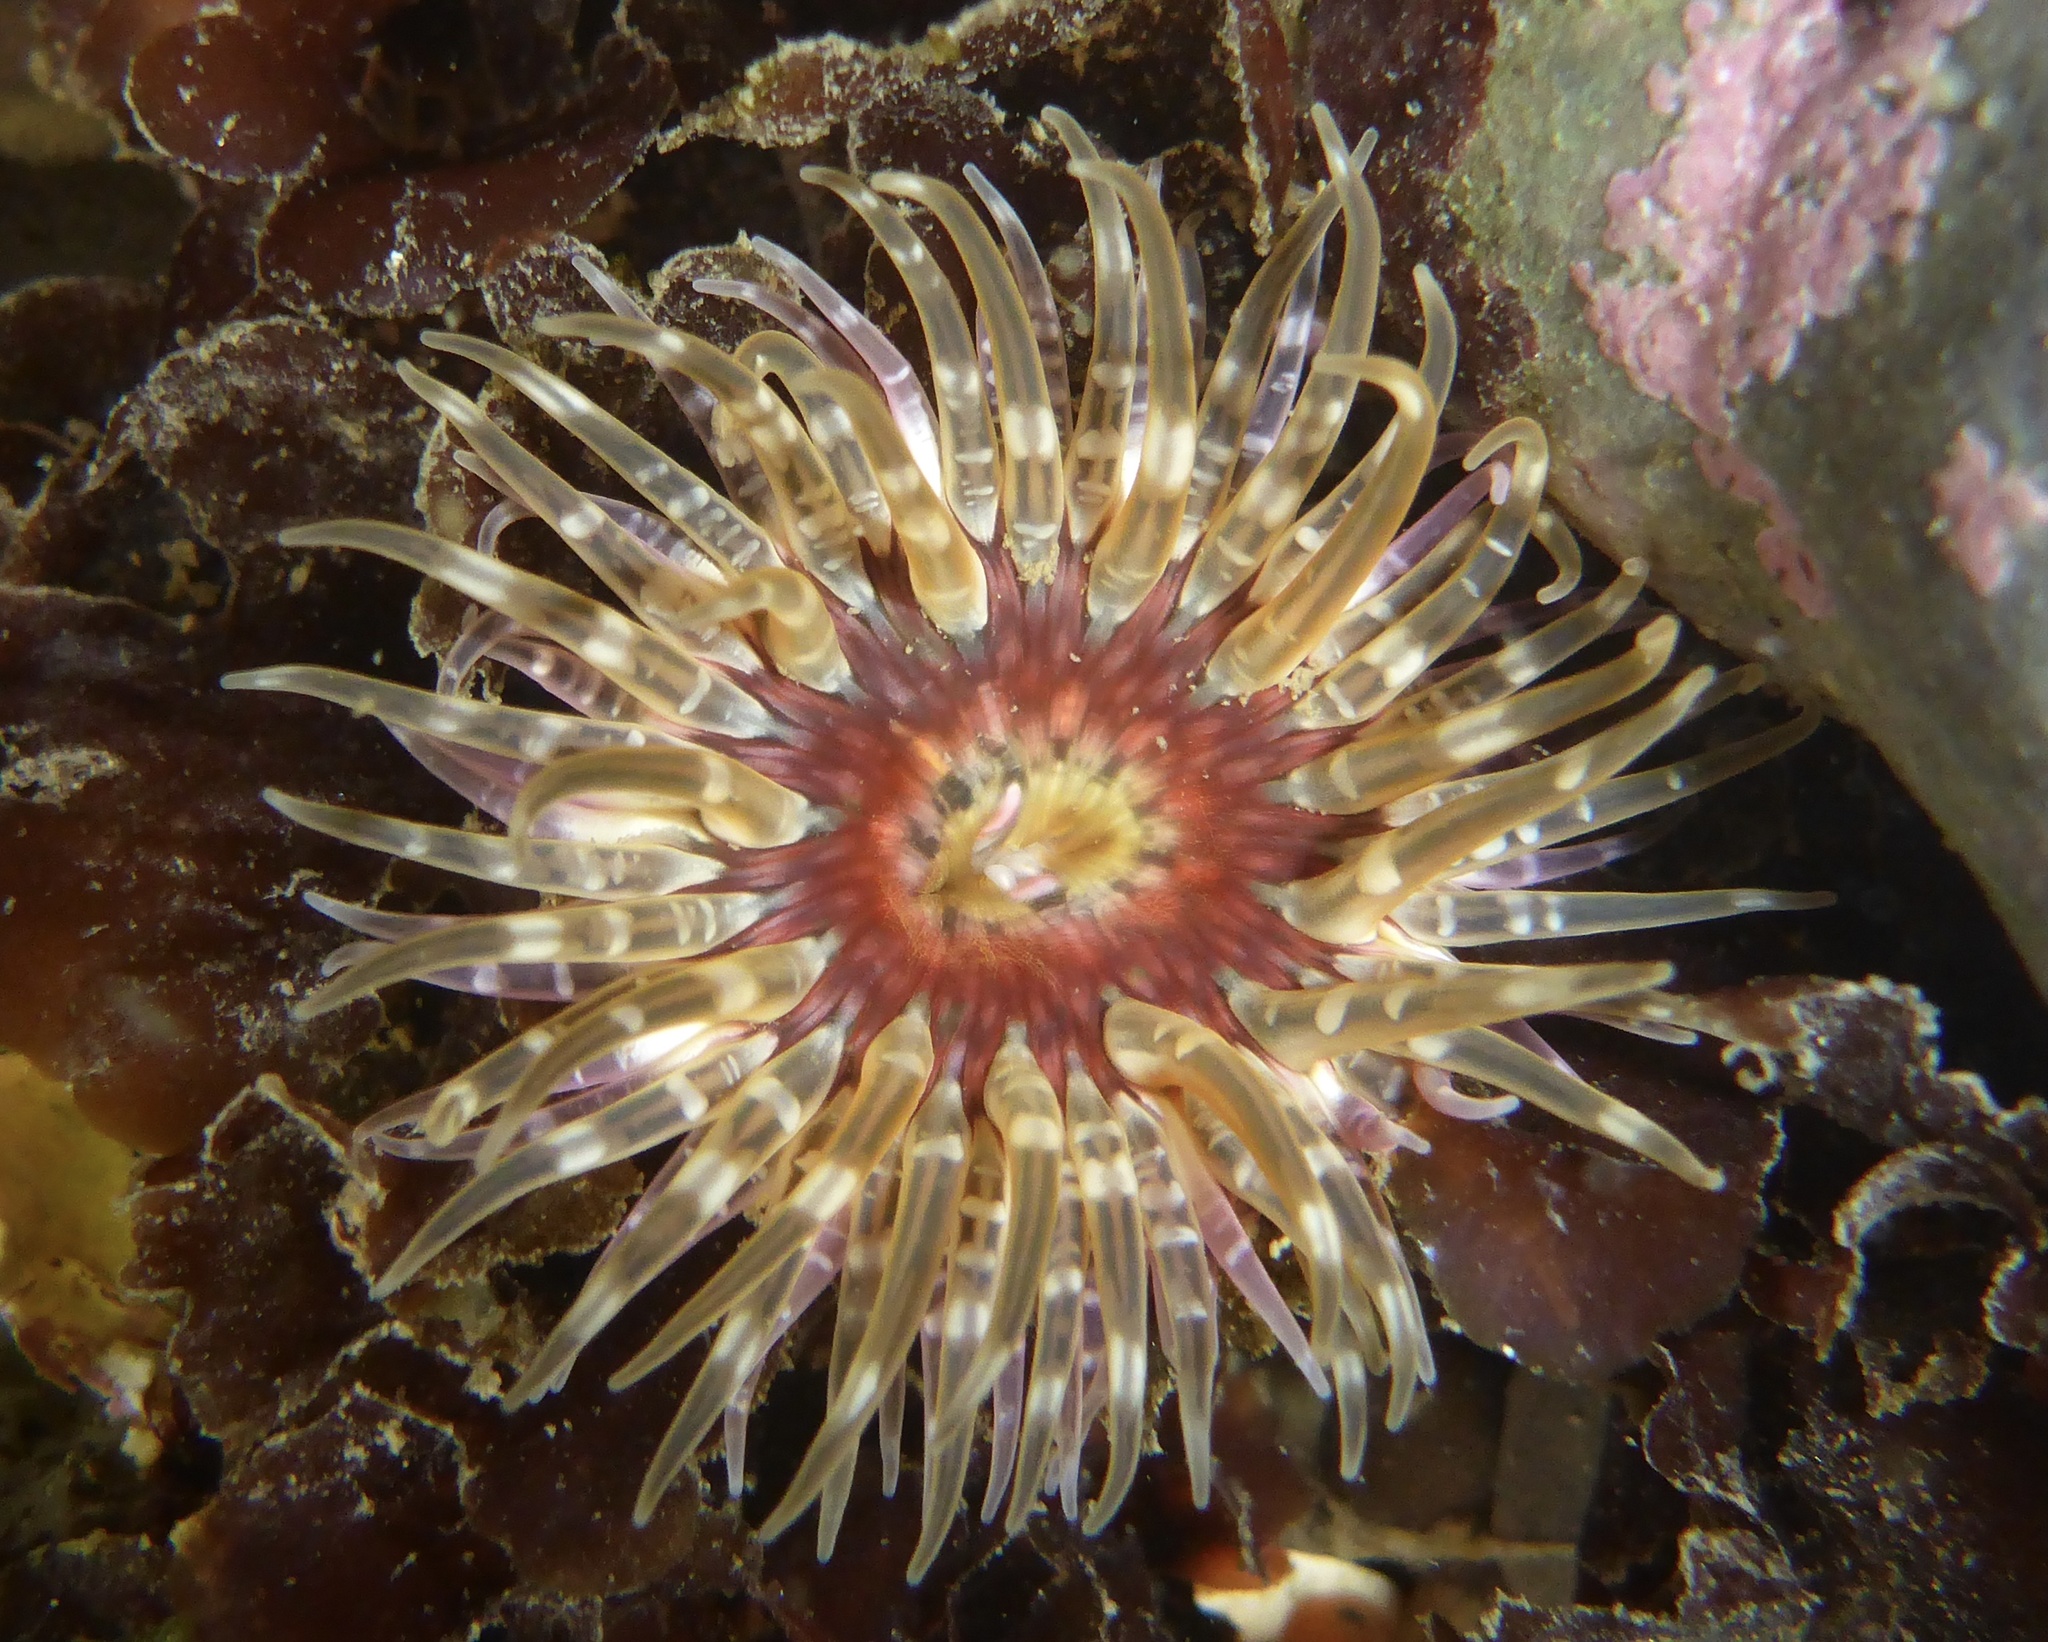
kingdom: Animalia
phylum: Cnidaria
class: Anthozoa
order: Actiniaria
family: Actiniidae
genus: Anthopleura
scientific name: Anthopleura artemisia
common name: Buried sea anemone
